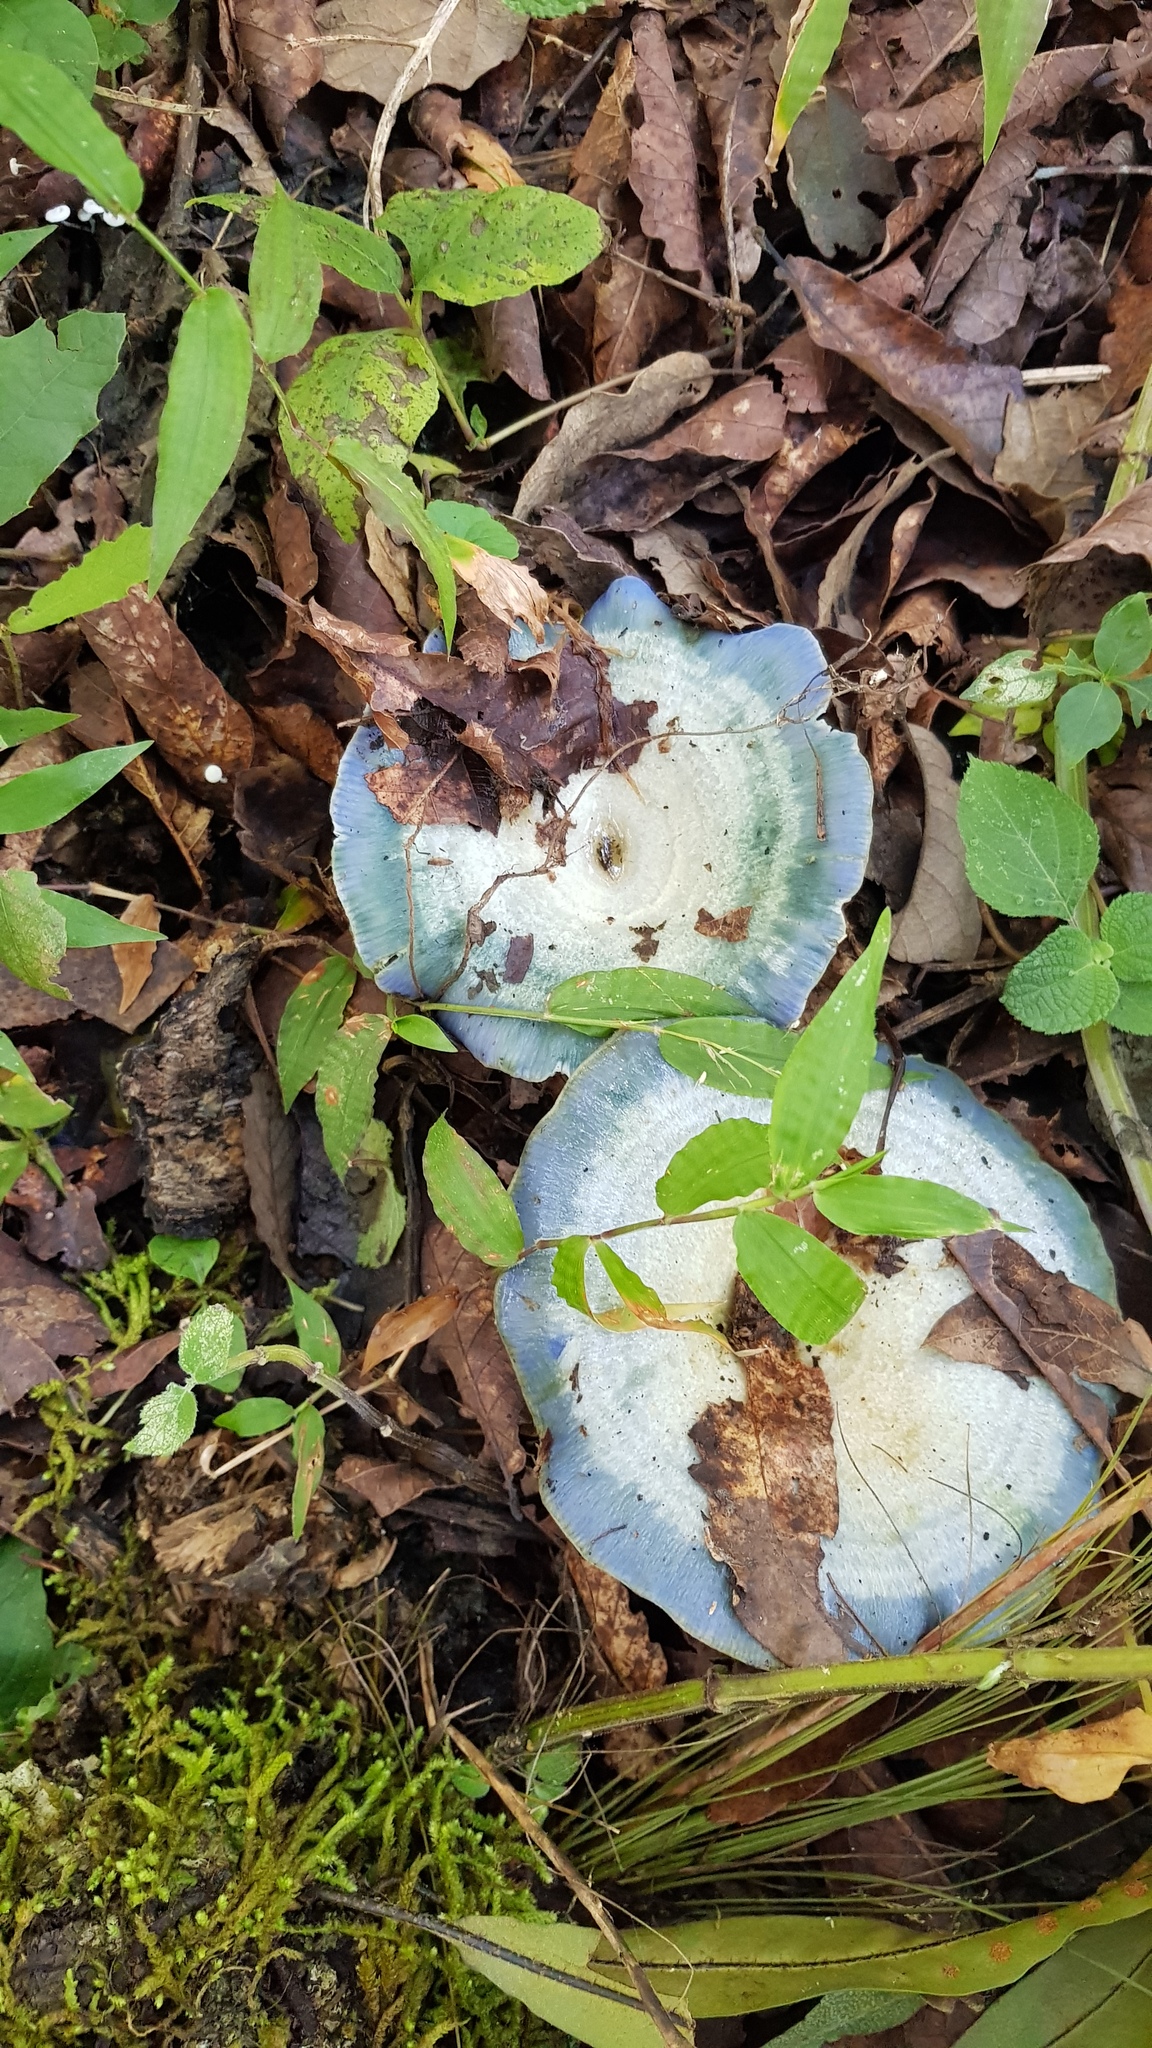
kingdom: Fungi
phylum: Basidiomycota
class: Agaricomycetes
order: Russulales
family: Russulaceae
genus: Lactarius
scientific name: Lactarius indigo
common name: Indigo milk cap
